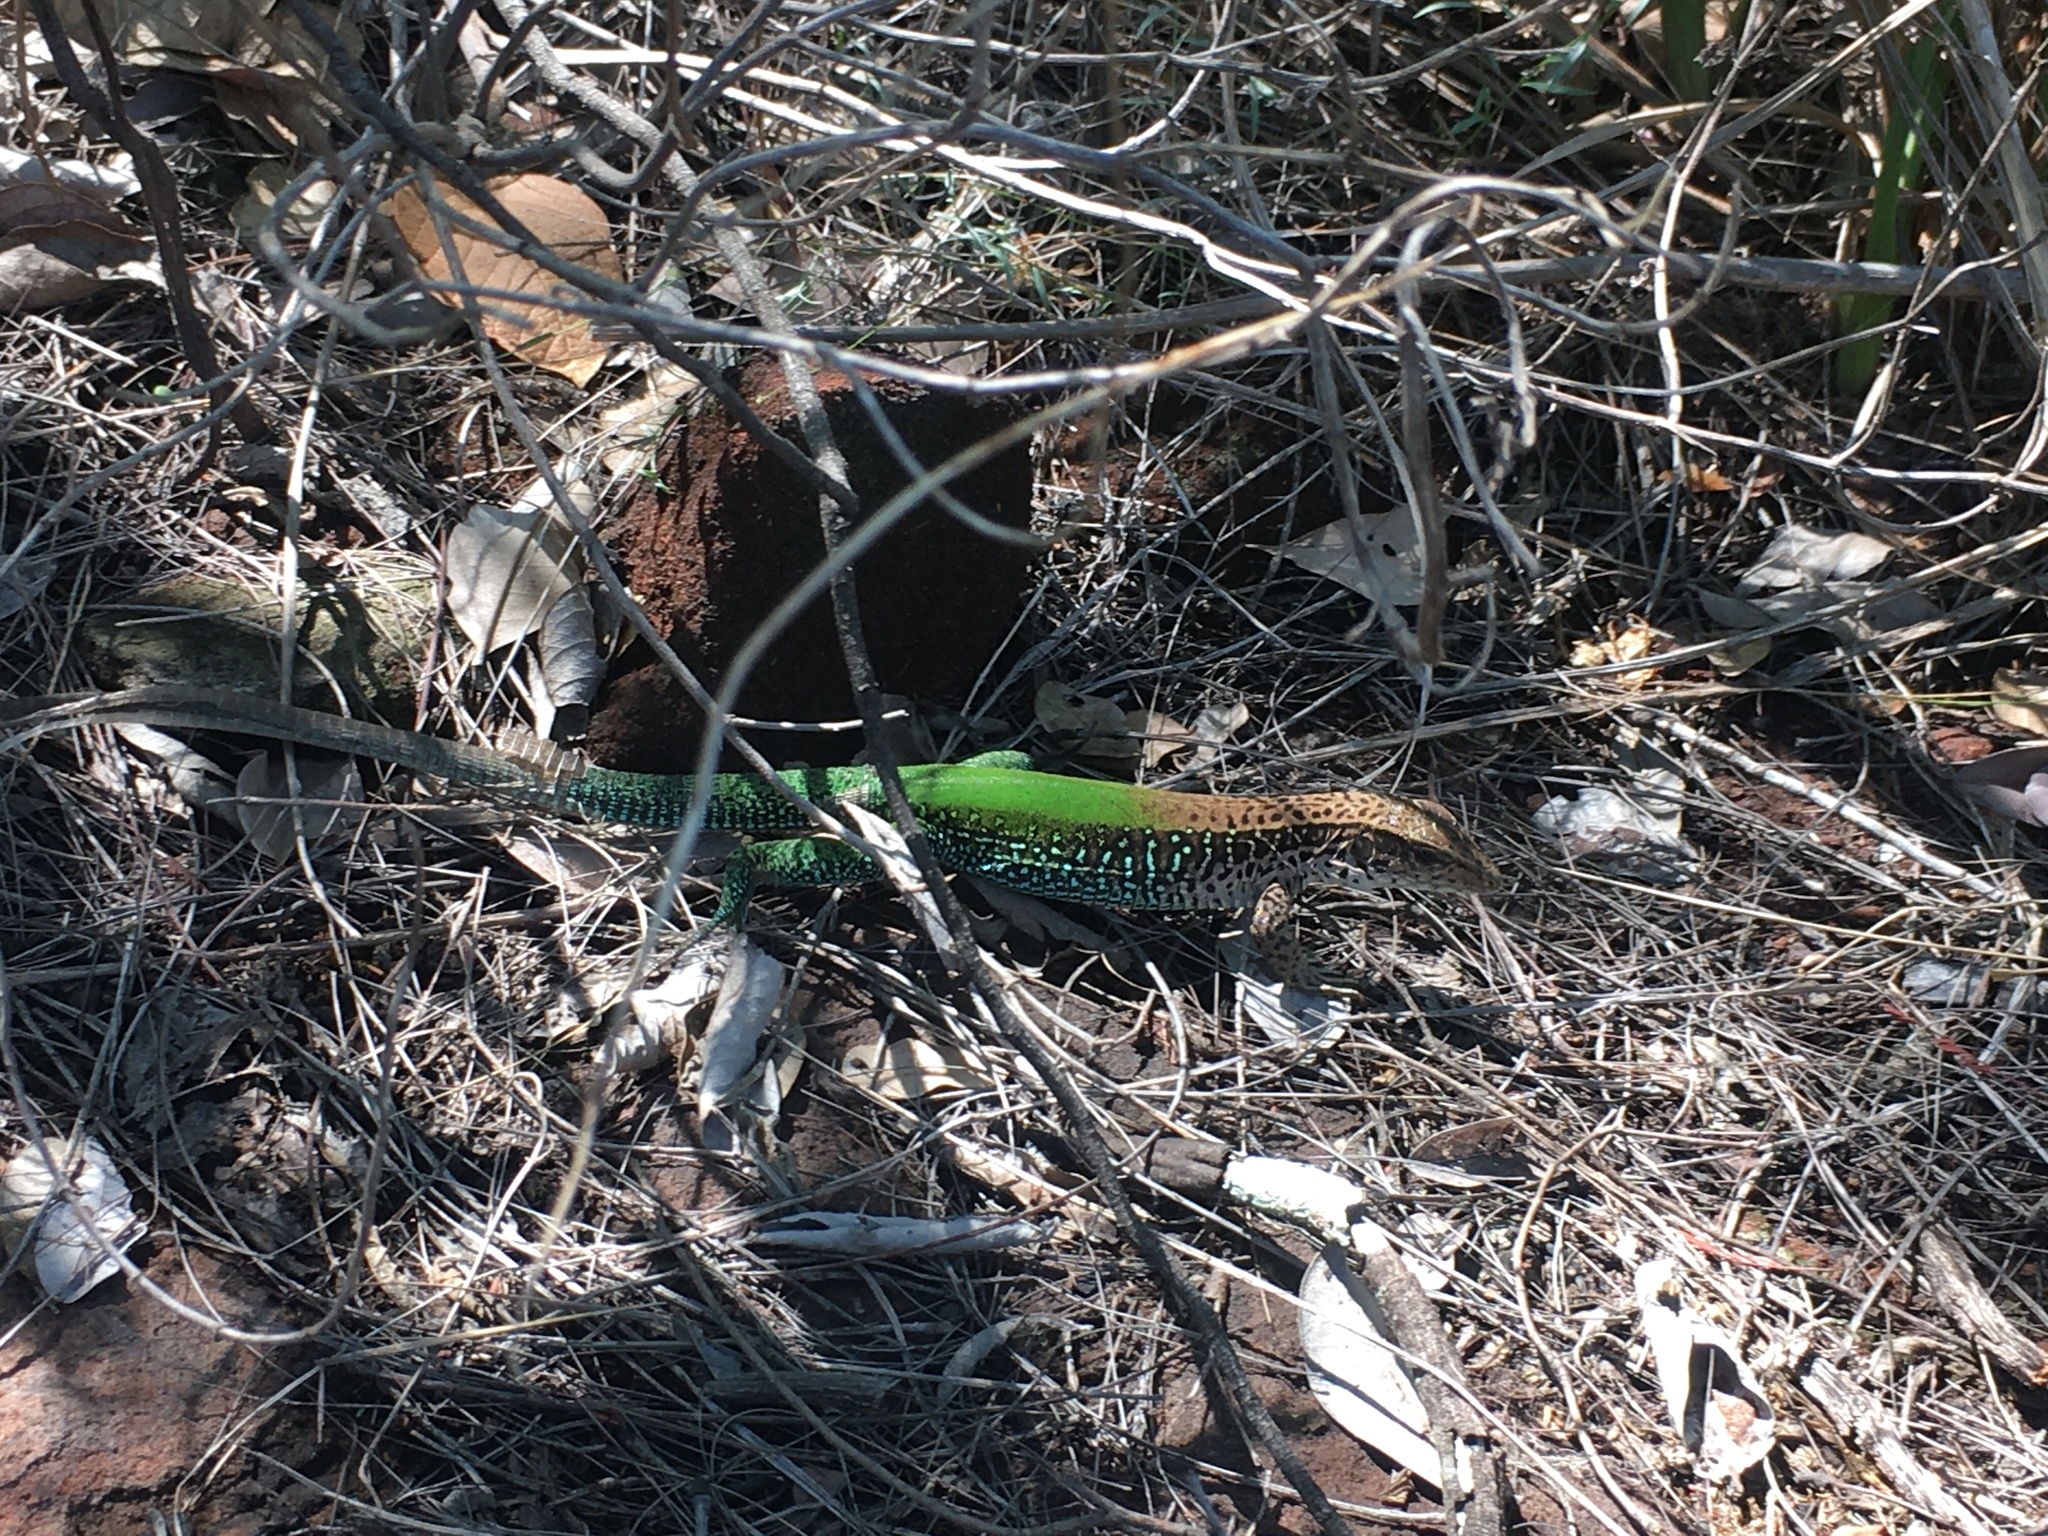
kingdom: Animalia
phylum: Chordata
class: Squamata
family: Teiidae
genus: Ameiva
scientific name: Ameiva ameiva
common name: Giant ameiva
